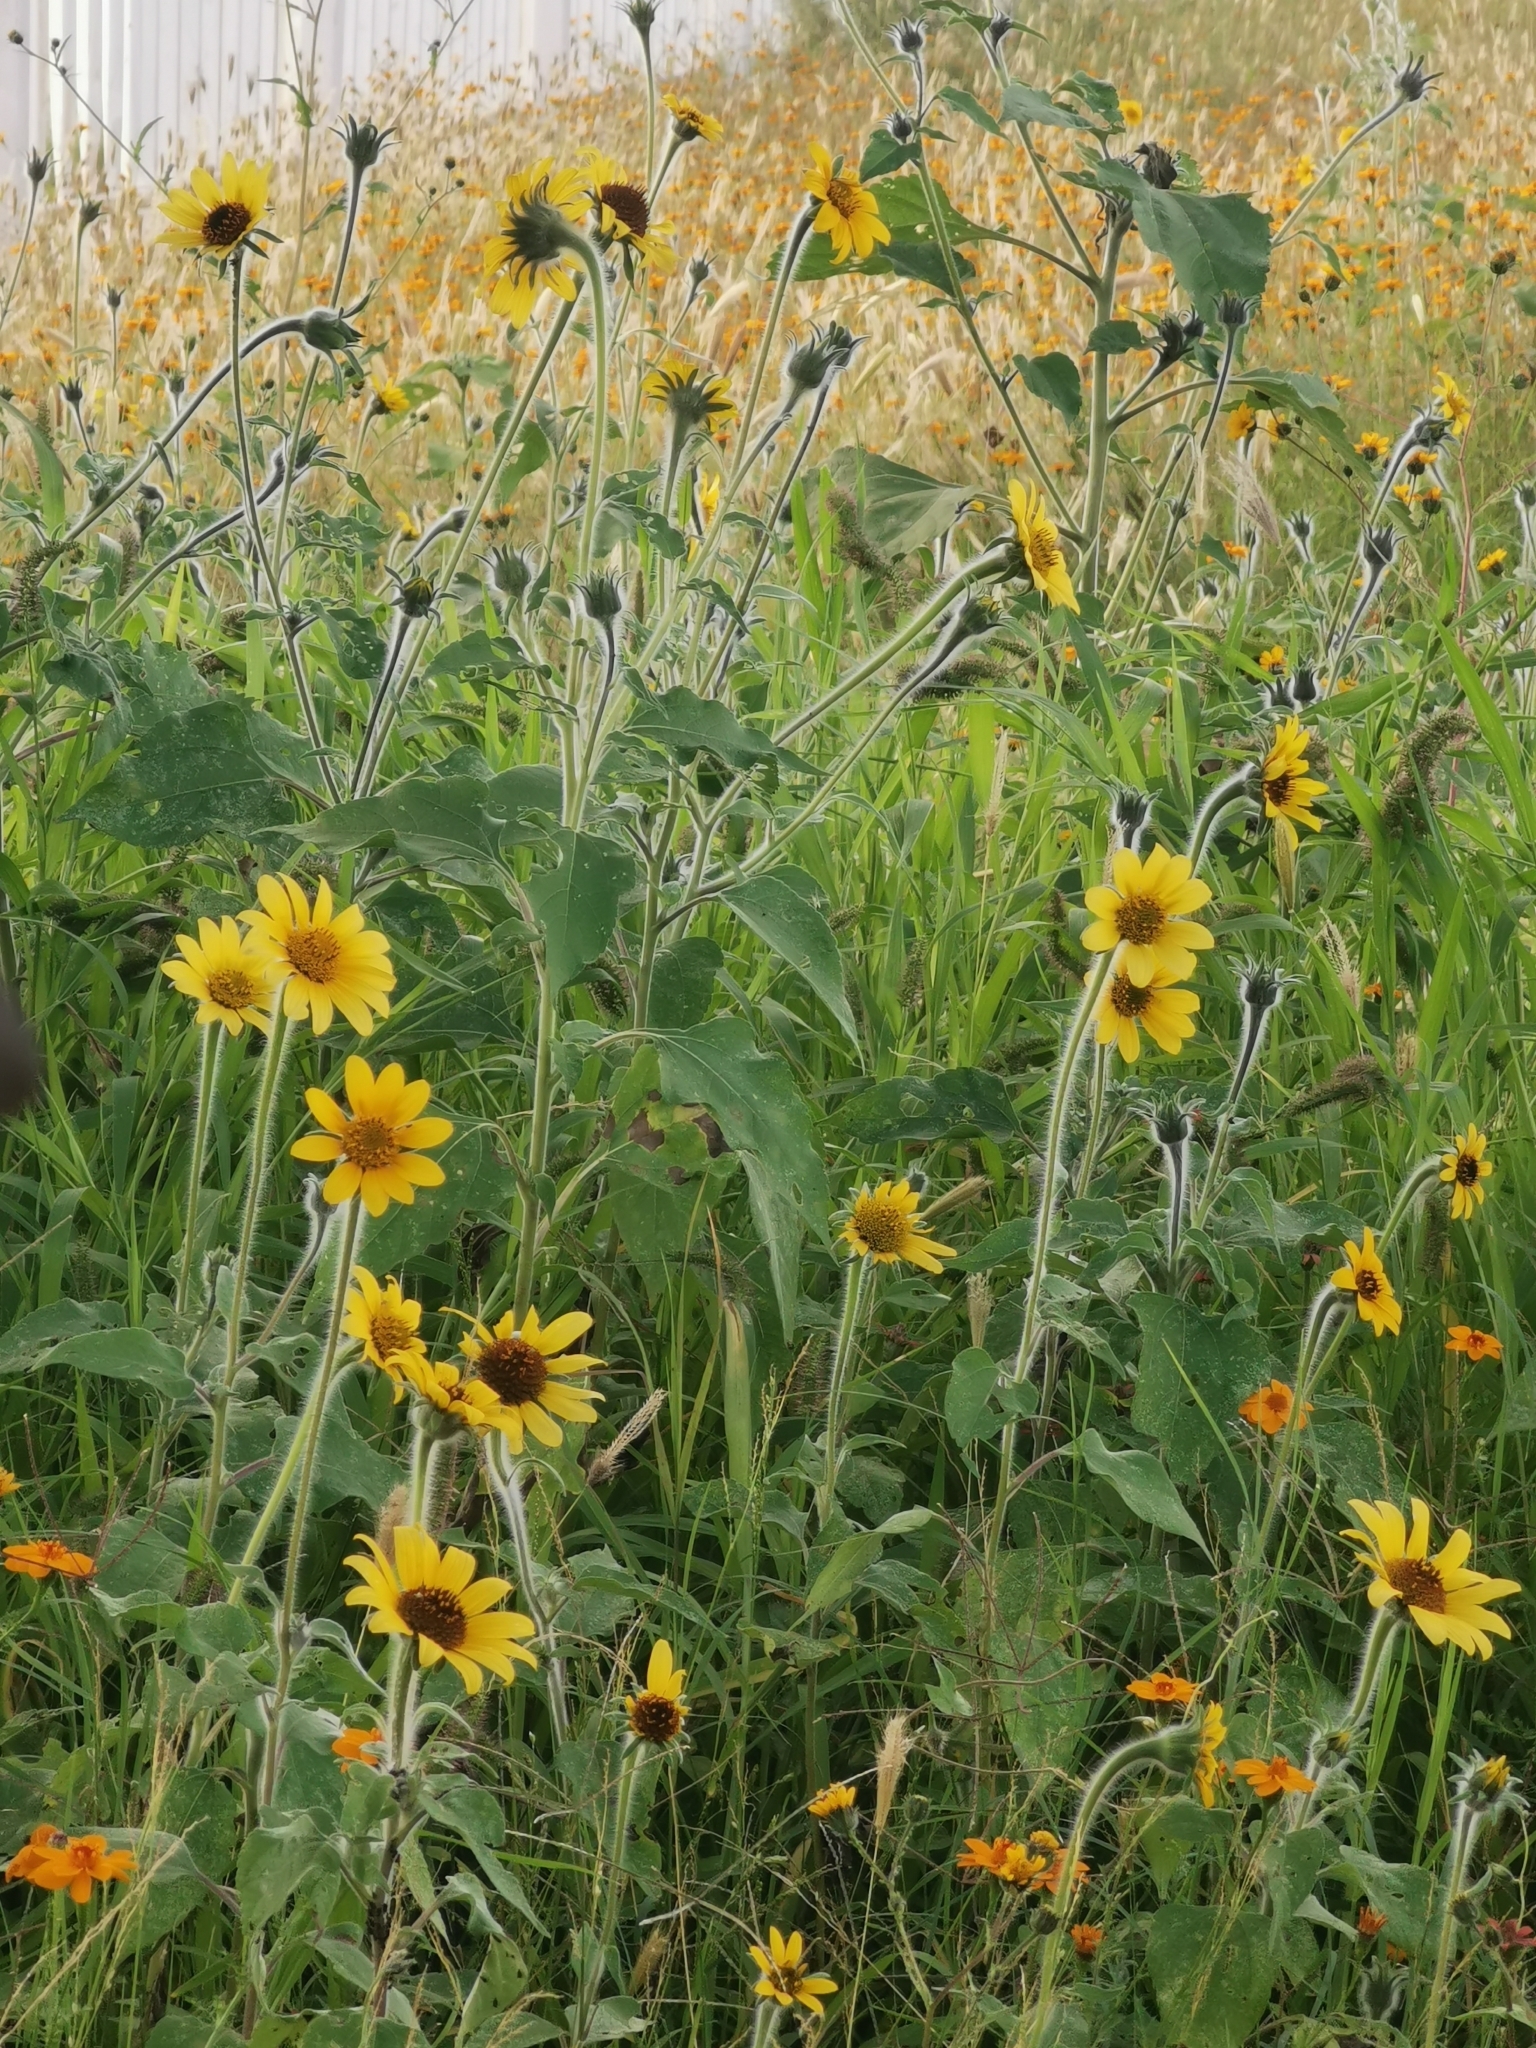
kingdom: Plantae
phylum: Tracheophyta
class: Magnoliopsida
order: Asterales
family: Asteraceae
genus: Tithonia
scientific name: Tithonia tubaeformis
